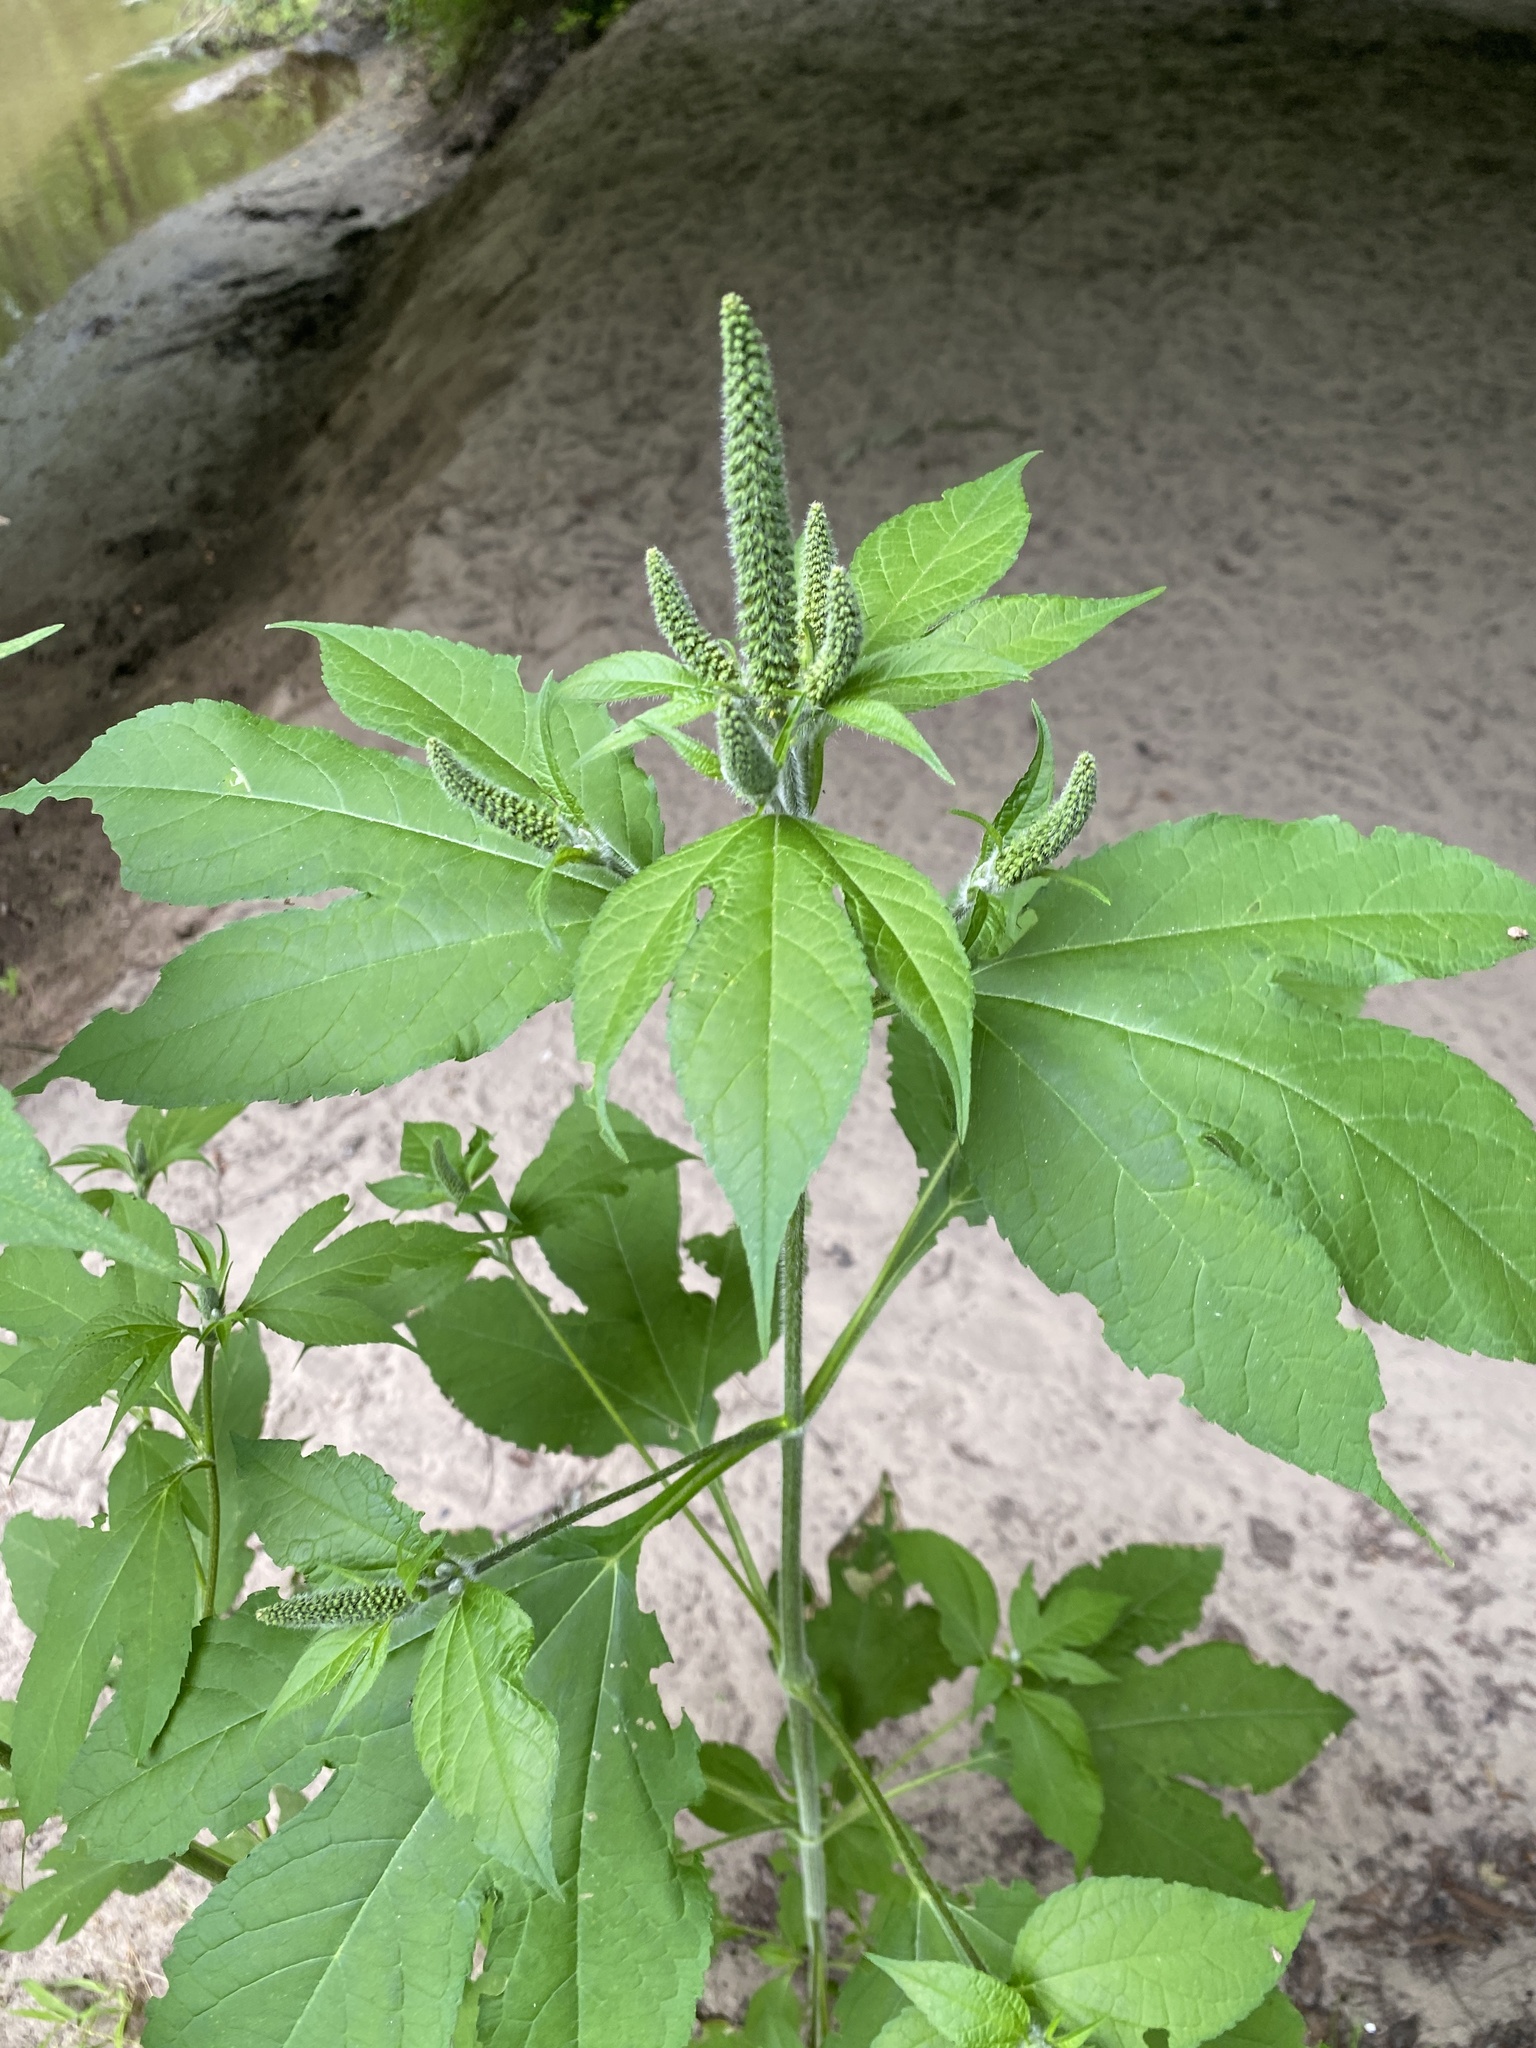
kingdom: Plantae
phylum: Tracheophyta
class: Magnoliopsida
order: Asterales
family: Asteraceae
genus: Ambrosia
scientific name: Ambrosia trifida
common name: Giant ragweed
